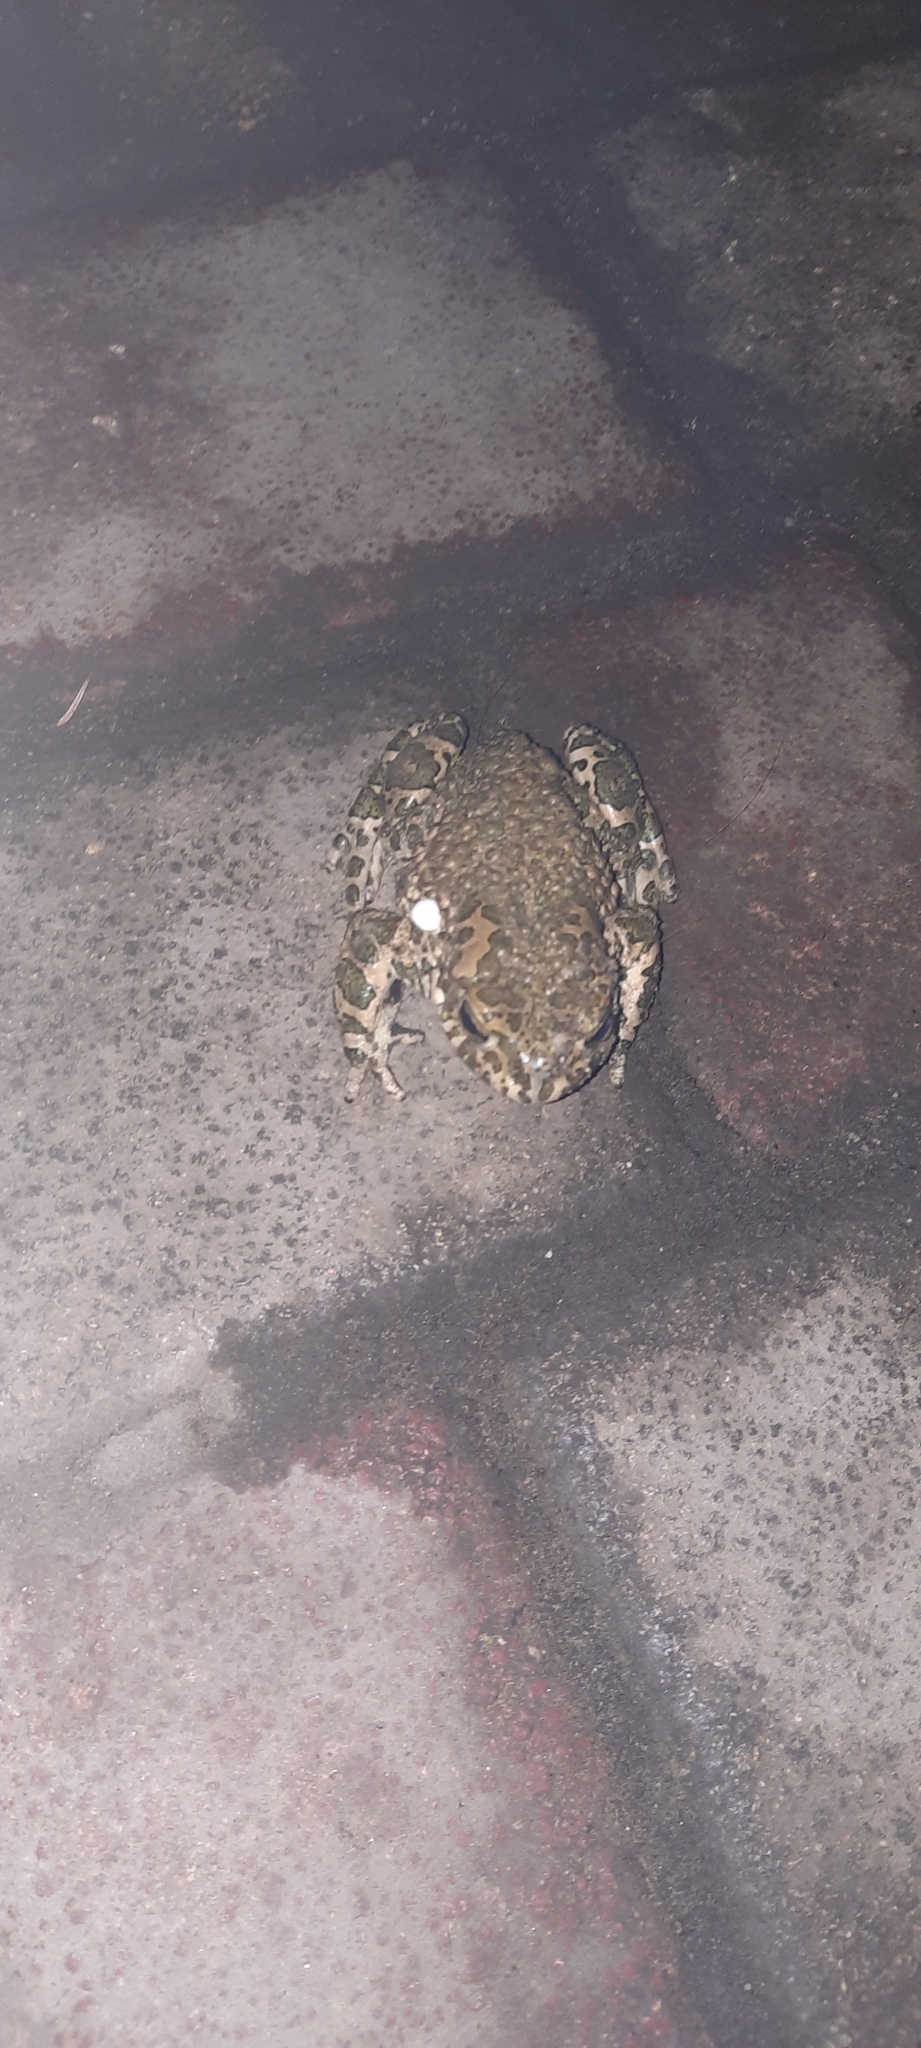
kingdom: Animalia
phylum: Chordata
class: Amphibia
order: Anura
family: Bufonidae
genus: Bufotes
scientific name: Bufotes viridis
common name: European green toad
